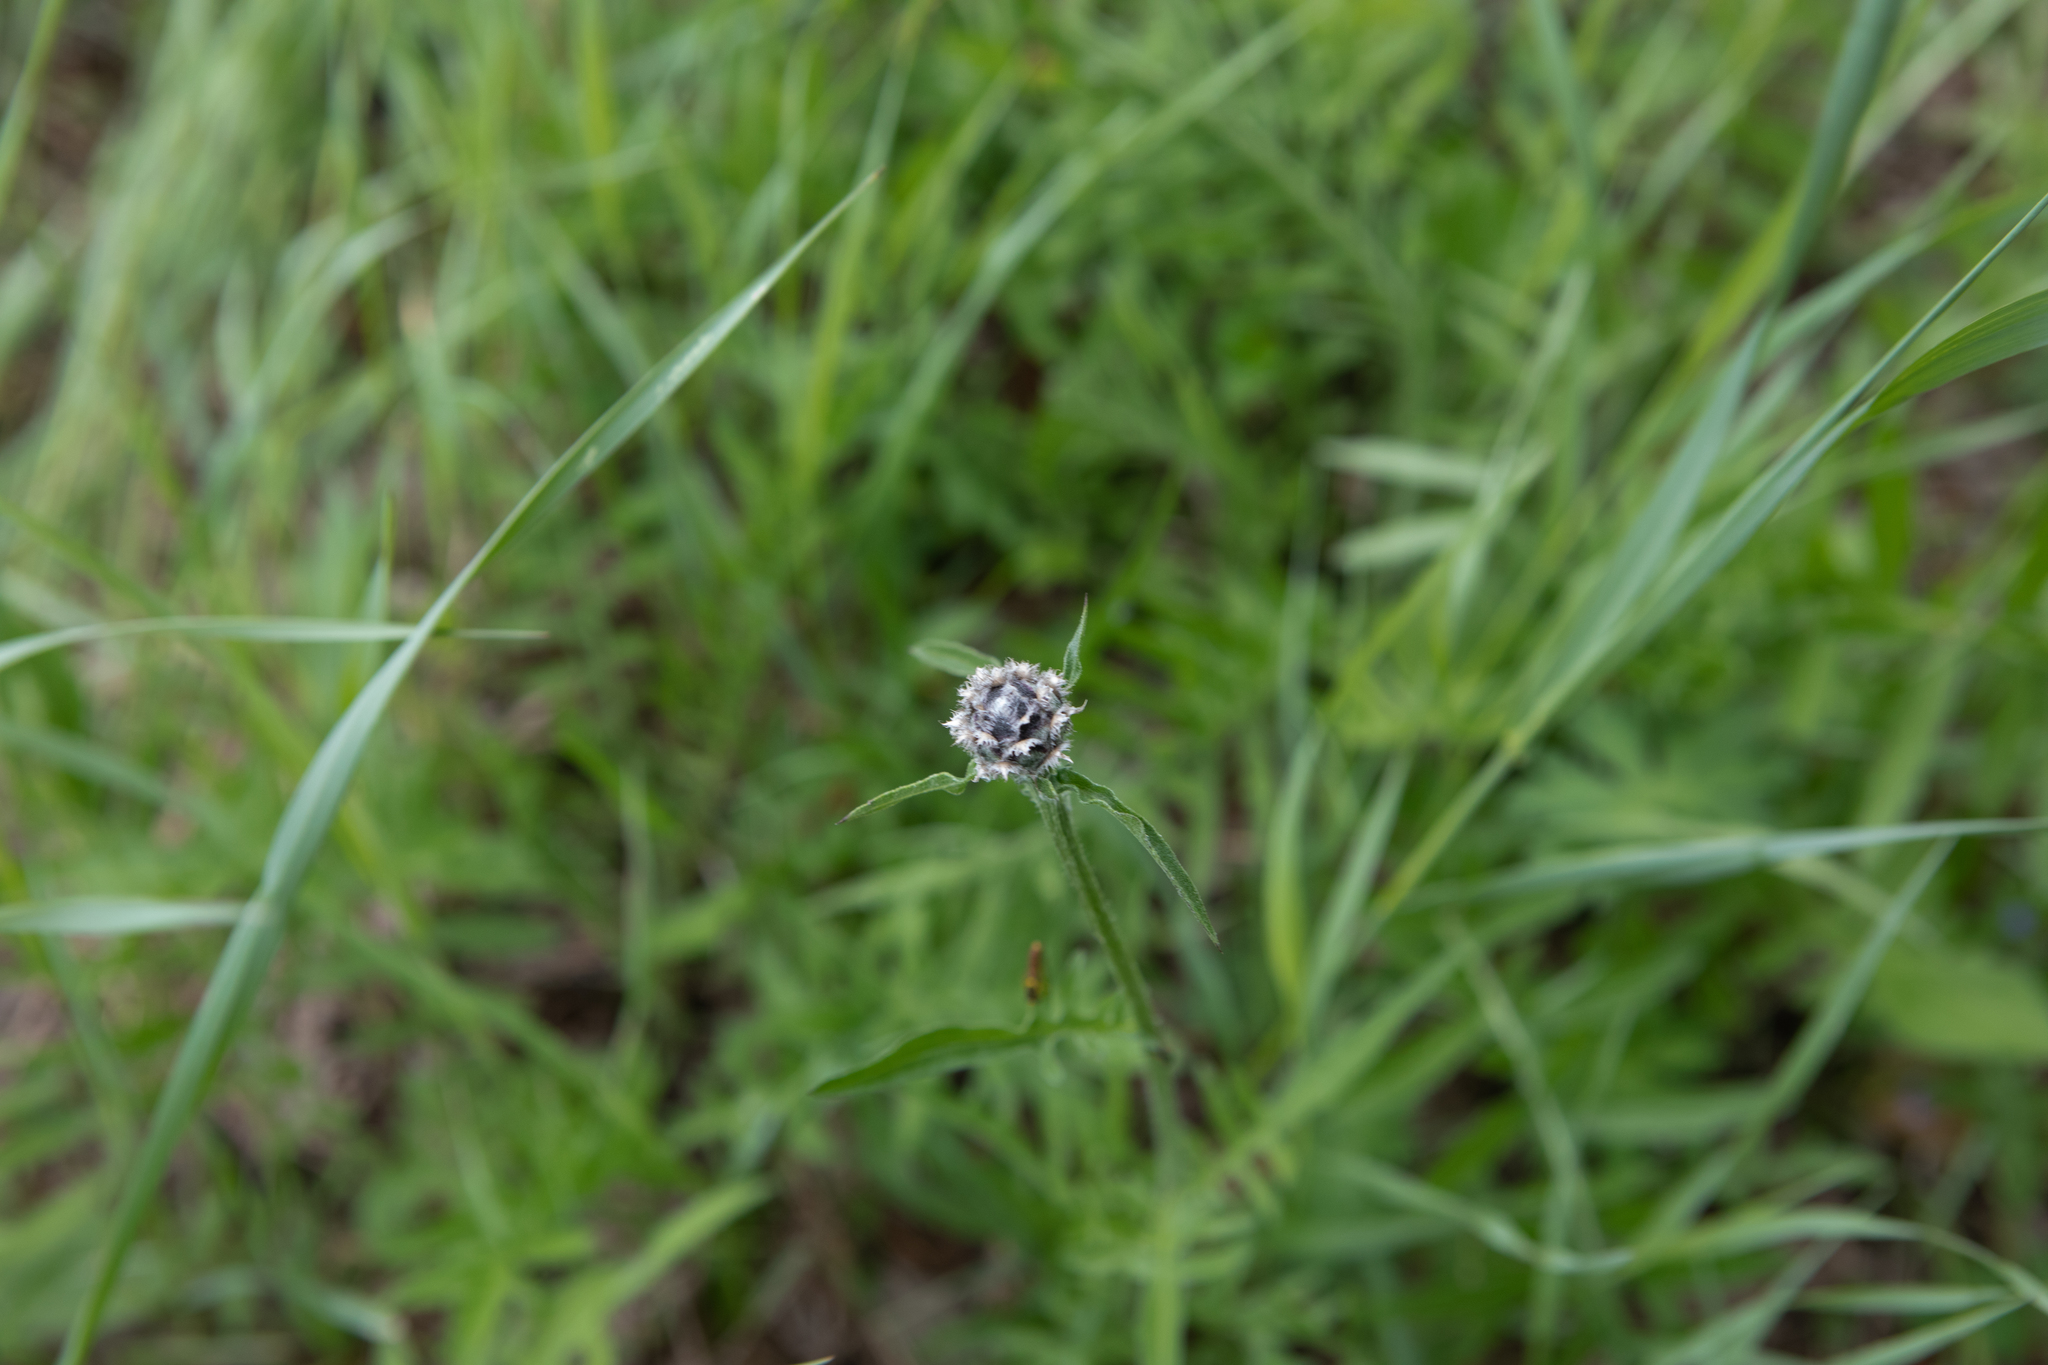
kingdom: Plantae
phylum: Tracheophyta
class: Magnoliopsida
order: Asterales
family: Asteraceae
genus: Centaurea
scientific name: Centaurea scabiosa
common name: Greater knapweed
